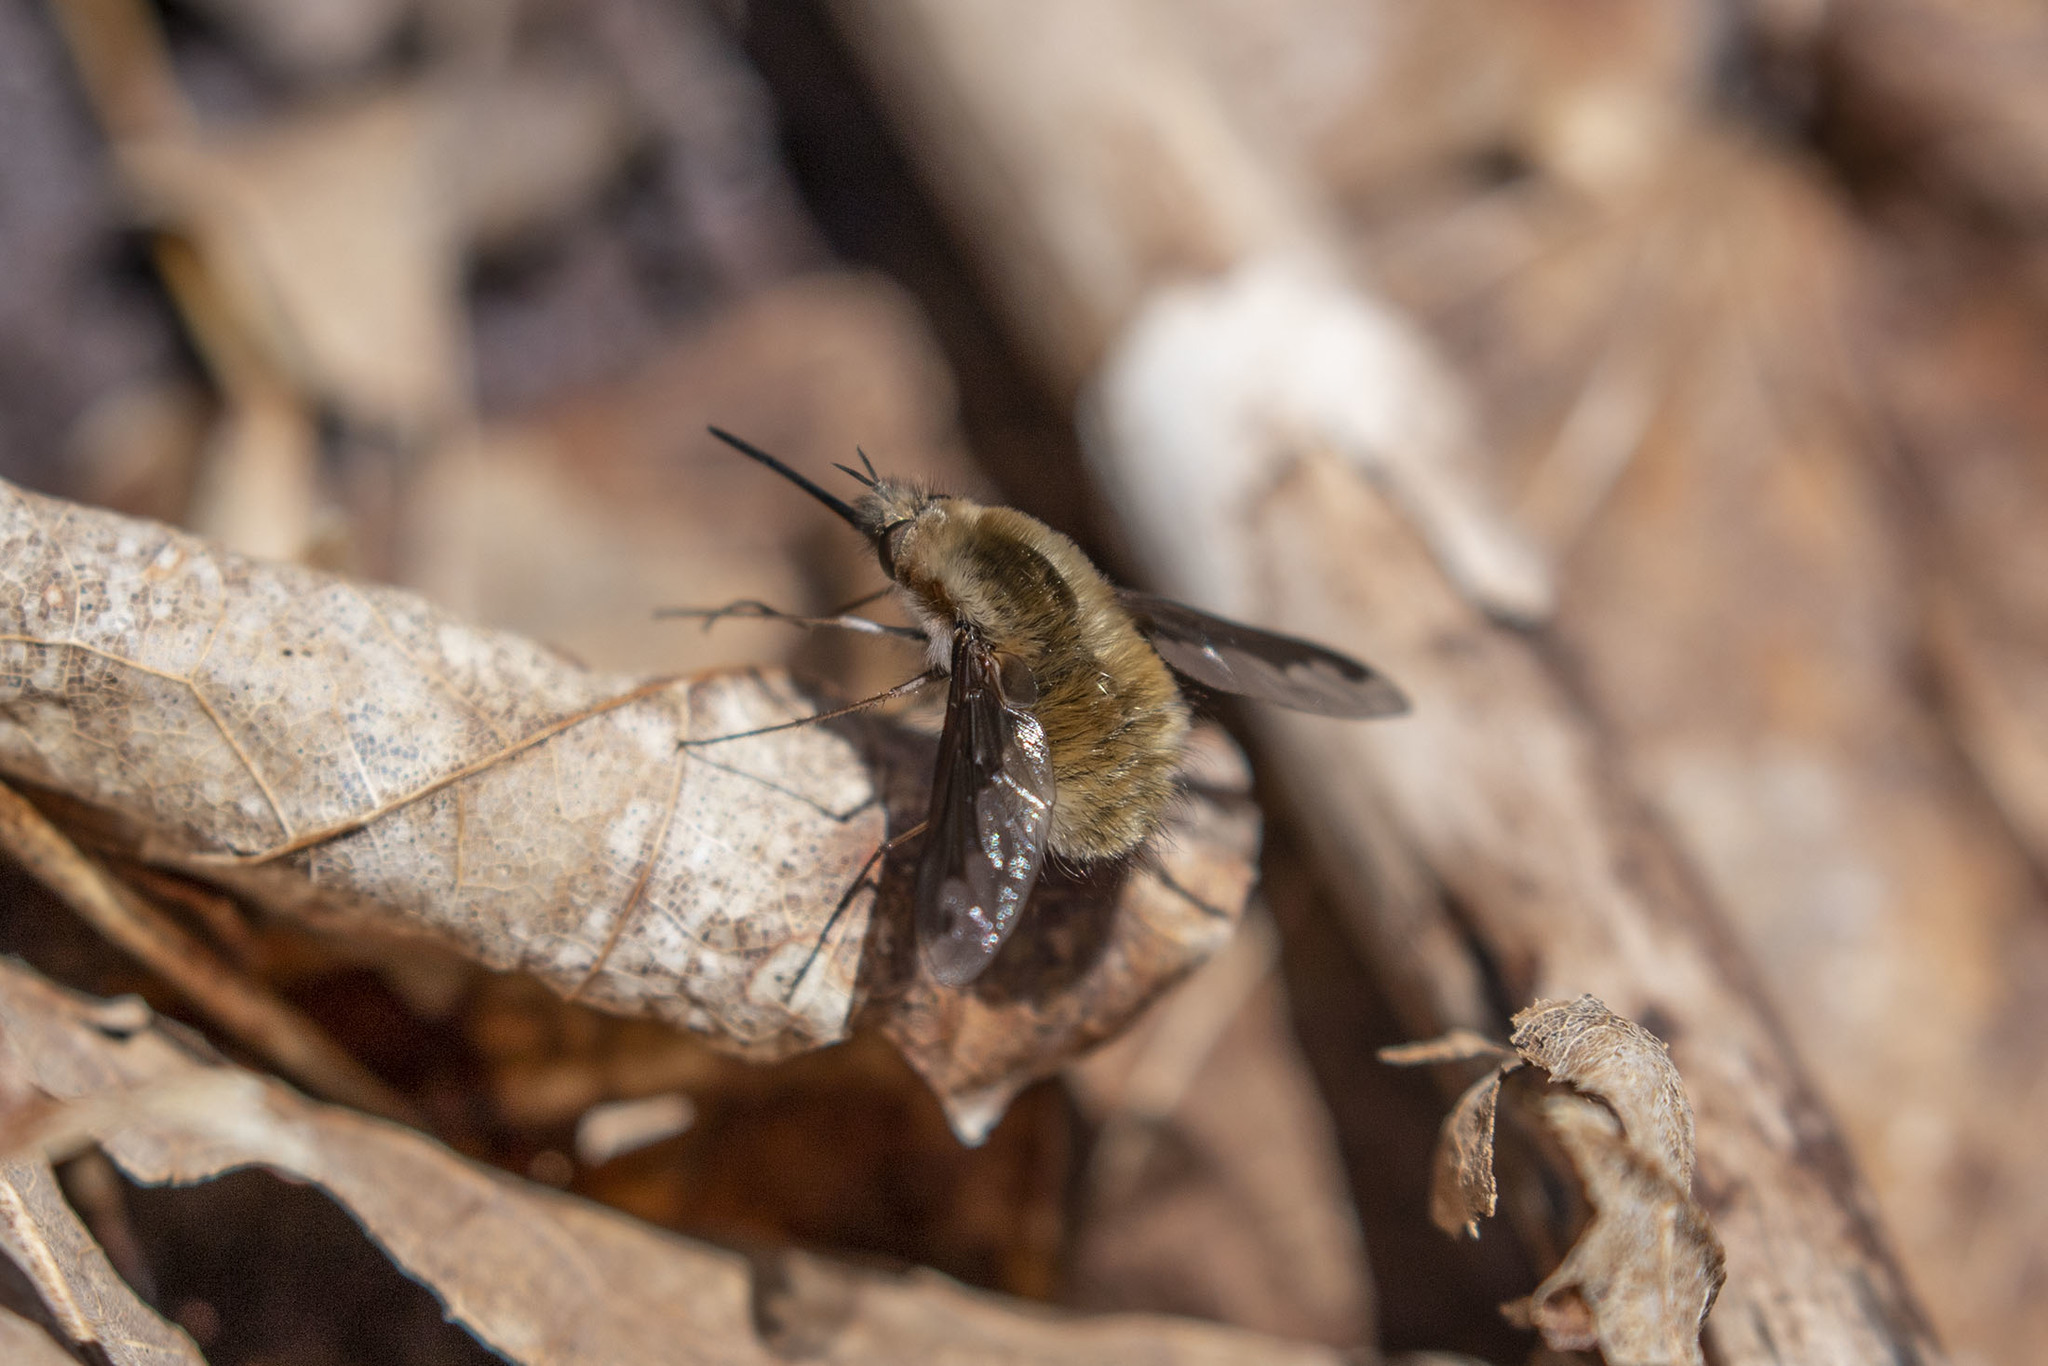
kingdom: Animalia
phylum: Arthropoda
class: Insecta
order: Diptera
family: Bombyliidae
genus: Bombylius
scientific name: Bombylius major
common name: Bee fly
